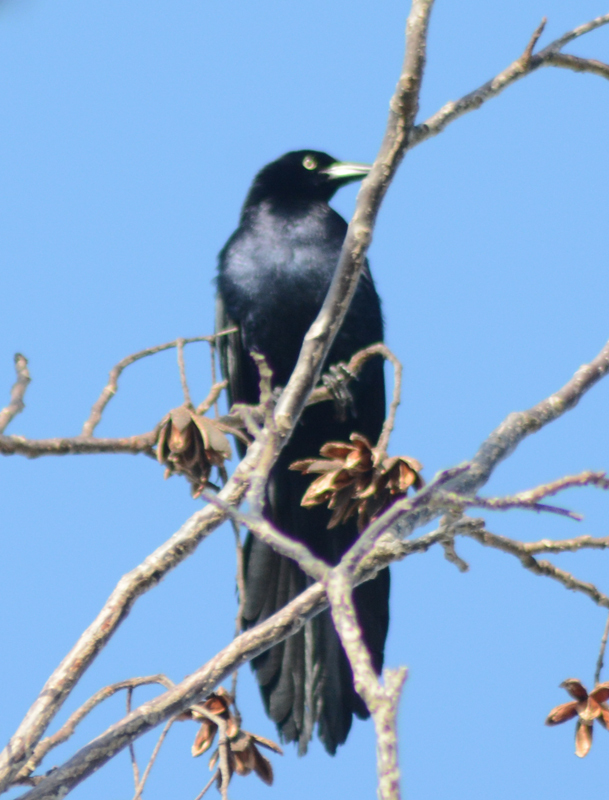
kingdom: Animalia
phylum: Chordata
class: Aves
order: Passeriformes
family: Icteridae
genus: Quiscalus
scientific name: Quiscalus mexicanus
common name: Great-tailed grackle
